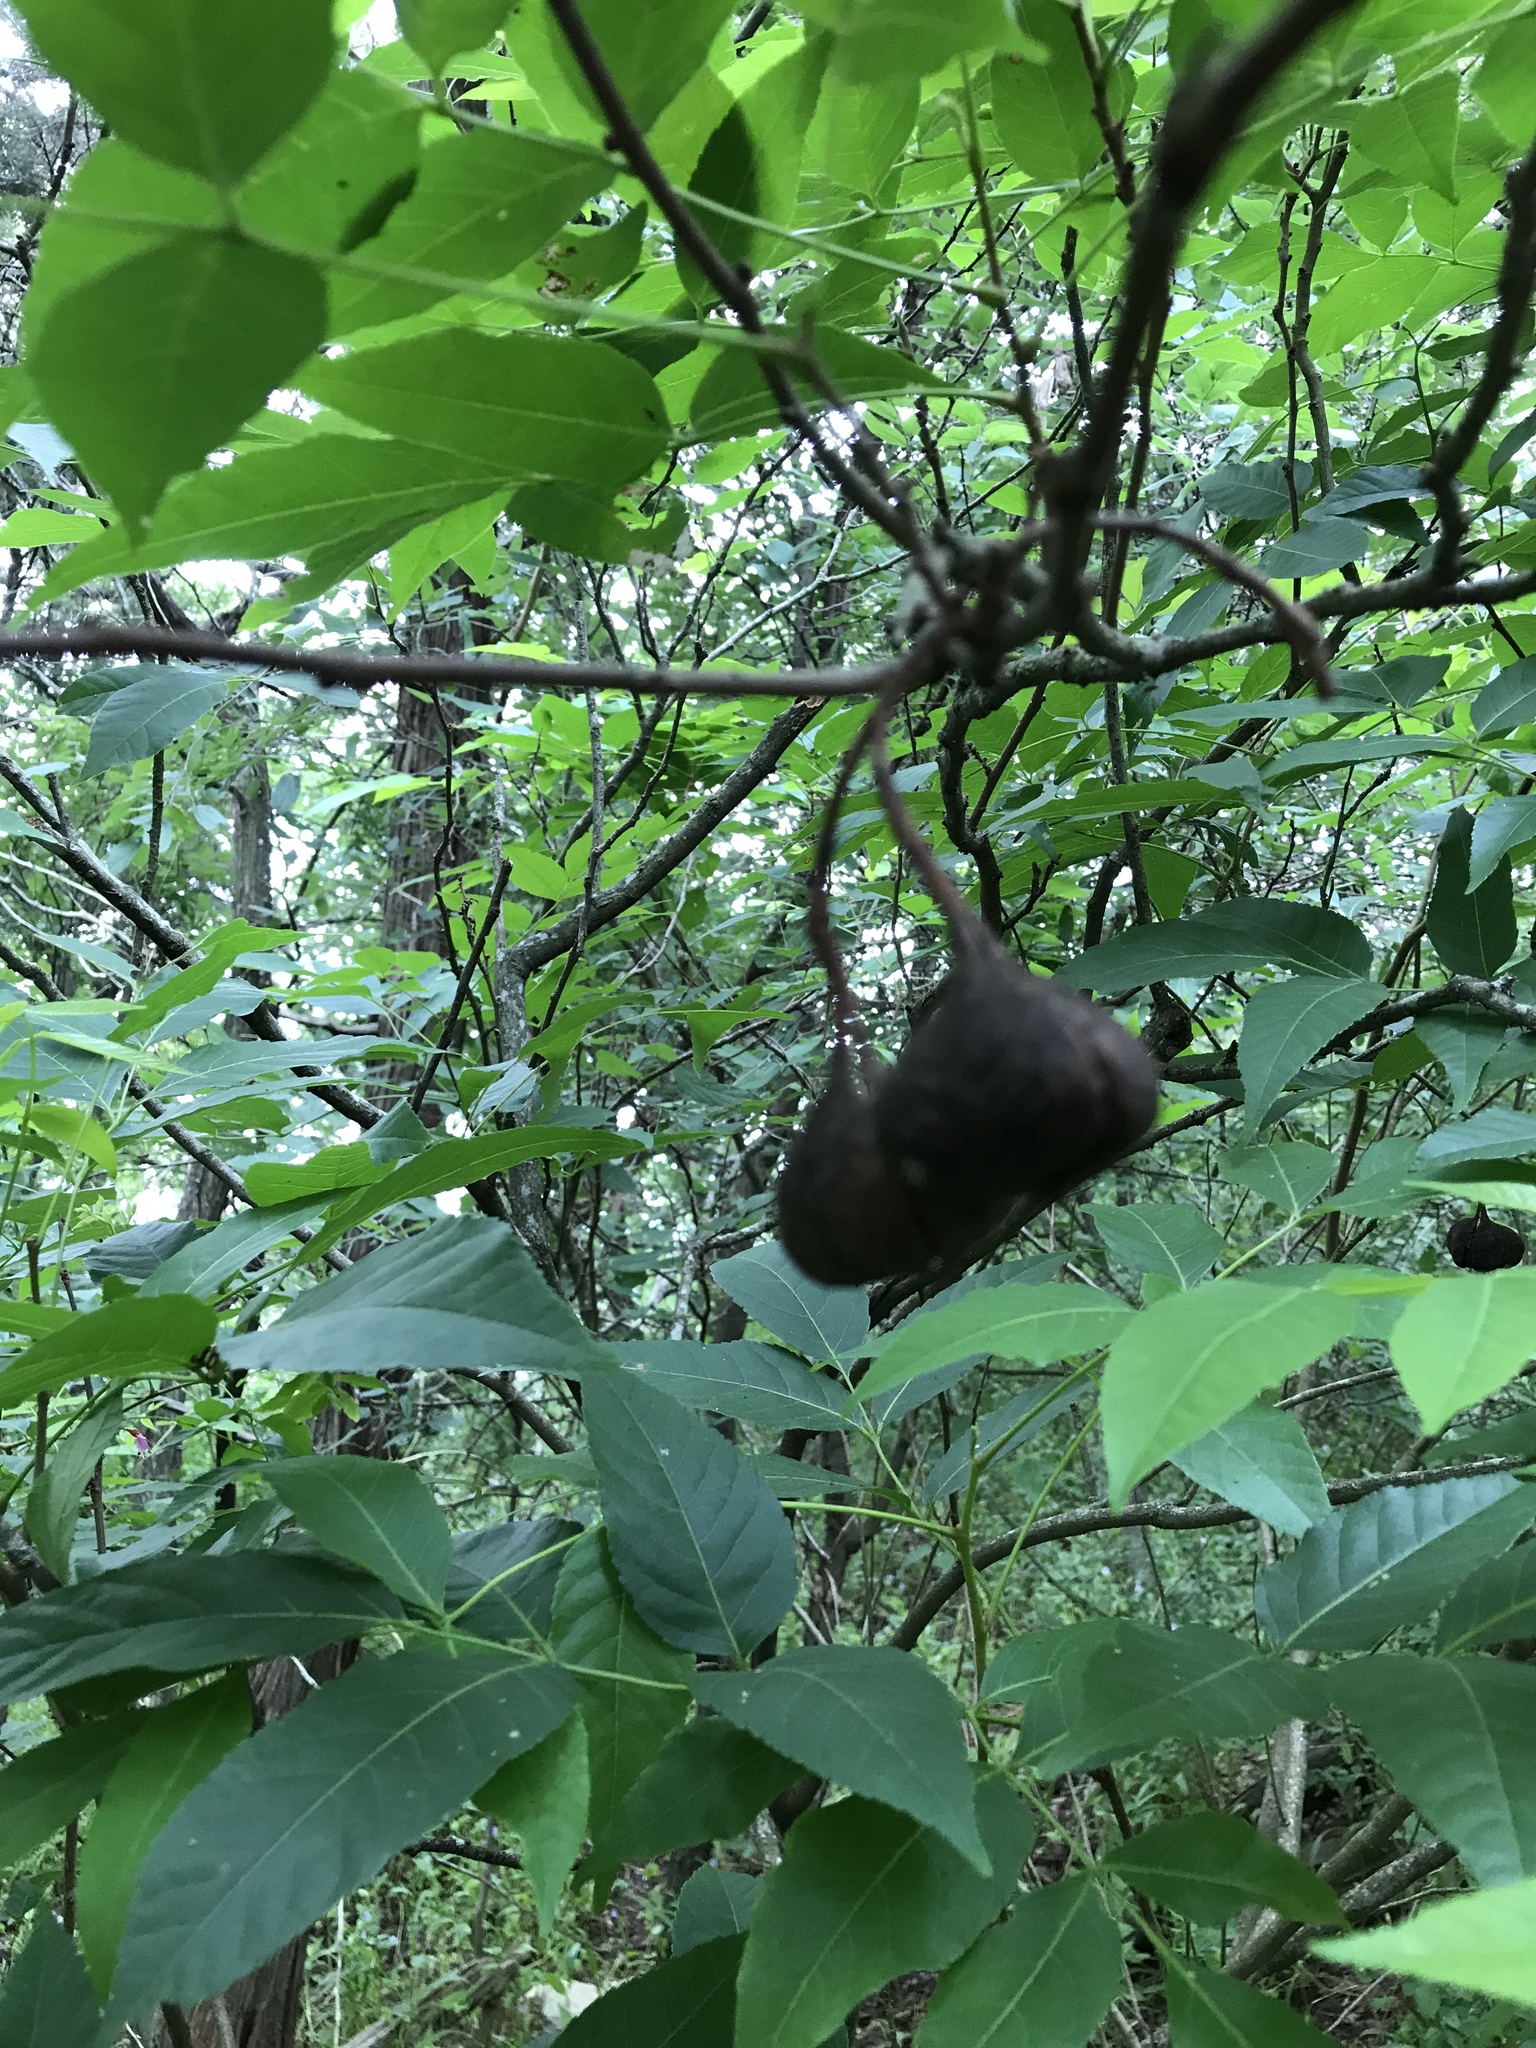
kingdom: Plantae
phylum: Tracheophyta
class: Magnoliopsida
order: Sapindales
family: Sapindaceae
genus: Ungnadia
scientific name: Ungnadia speciosa
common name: Texas-buckeye
